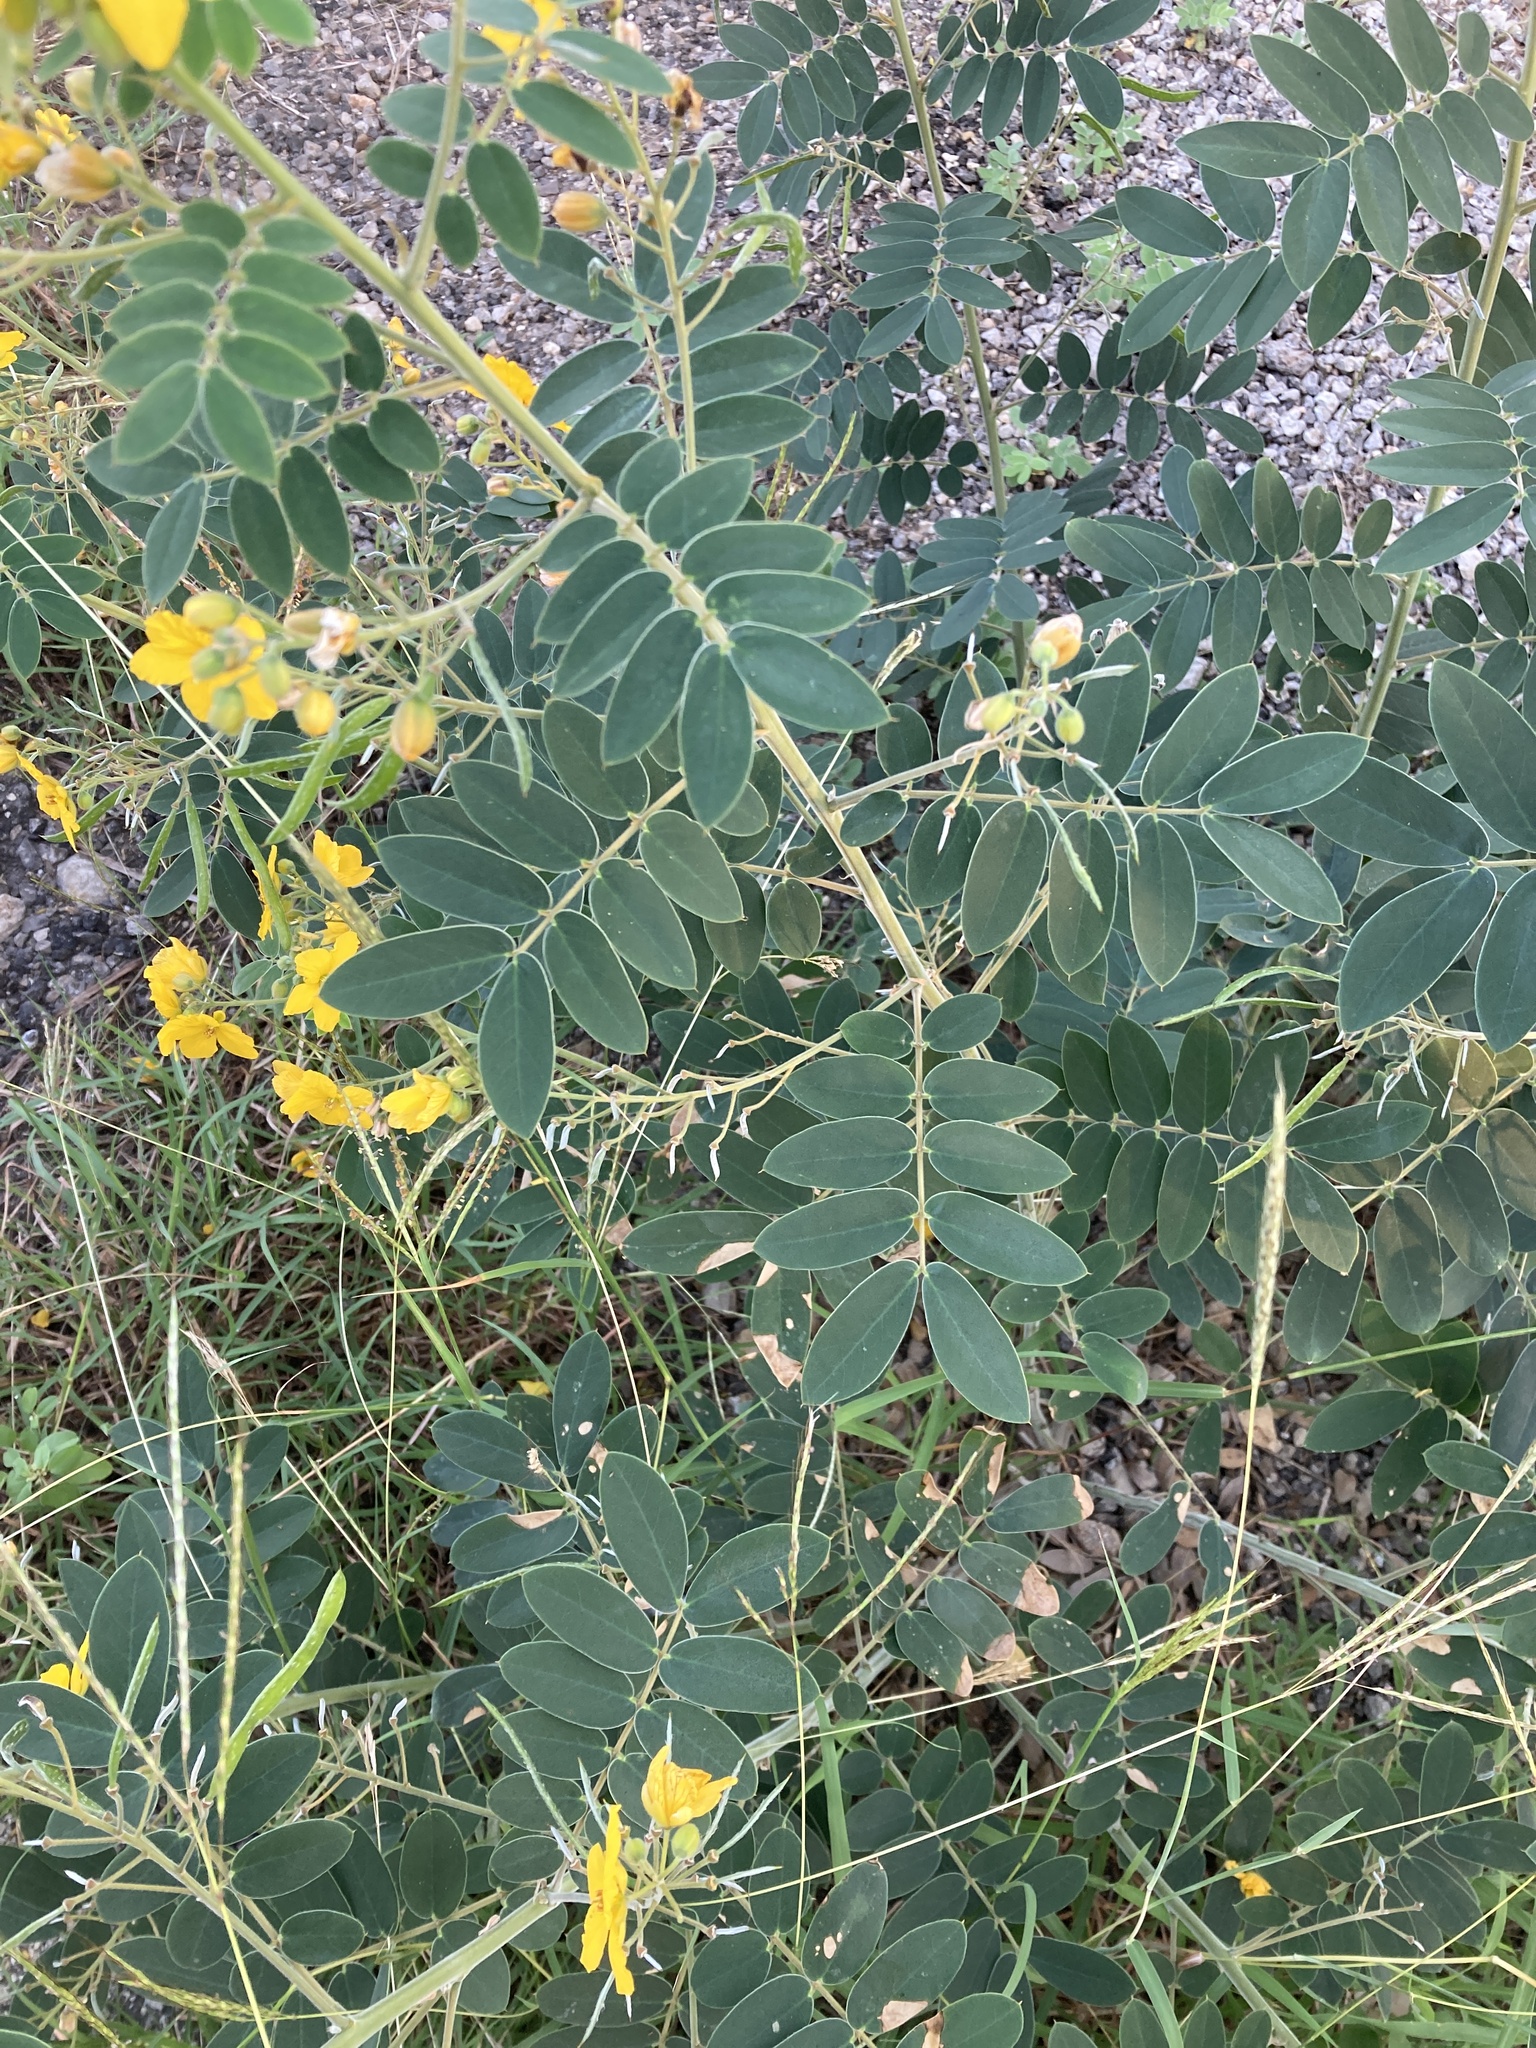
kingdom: Plantae
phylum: Tracheophyta
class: Magnoliopsida
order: Fabales
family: Fabaceae
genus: Senna
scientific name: Senna lindheimeriana
